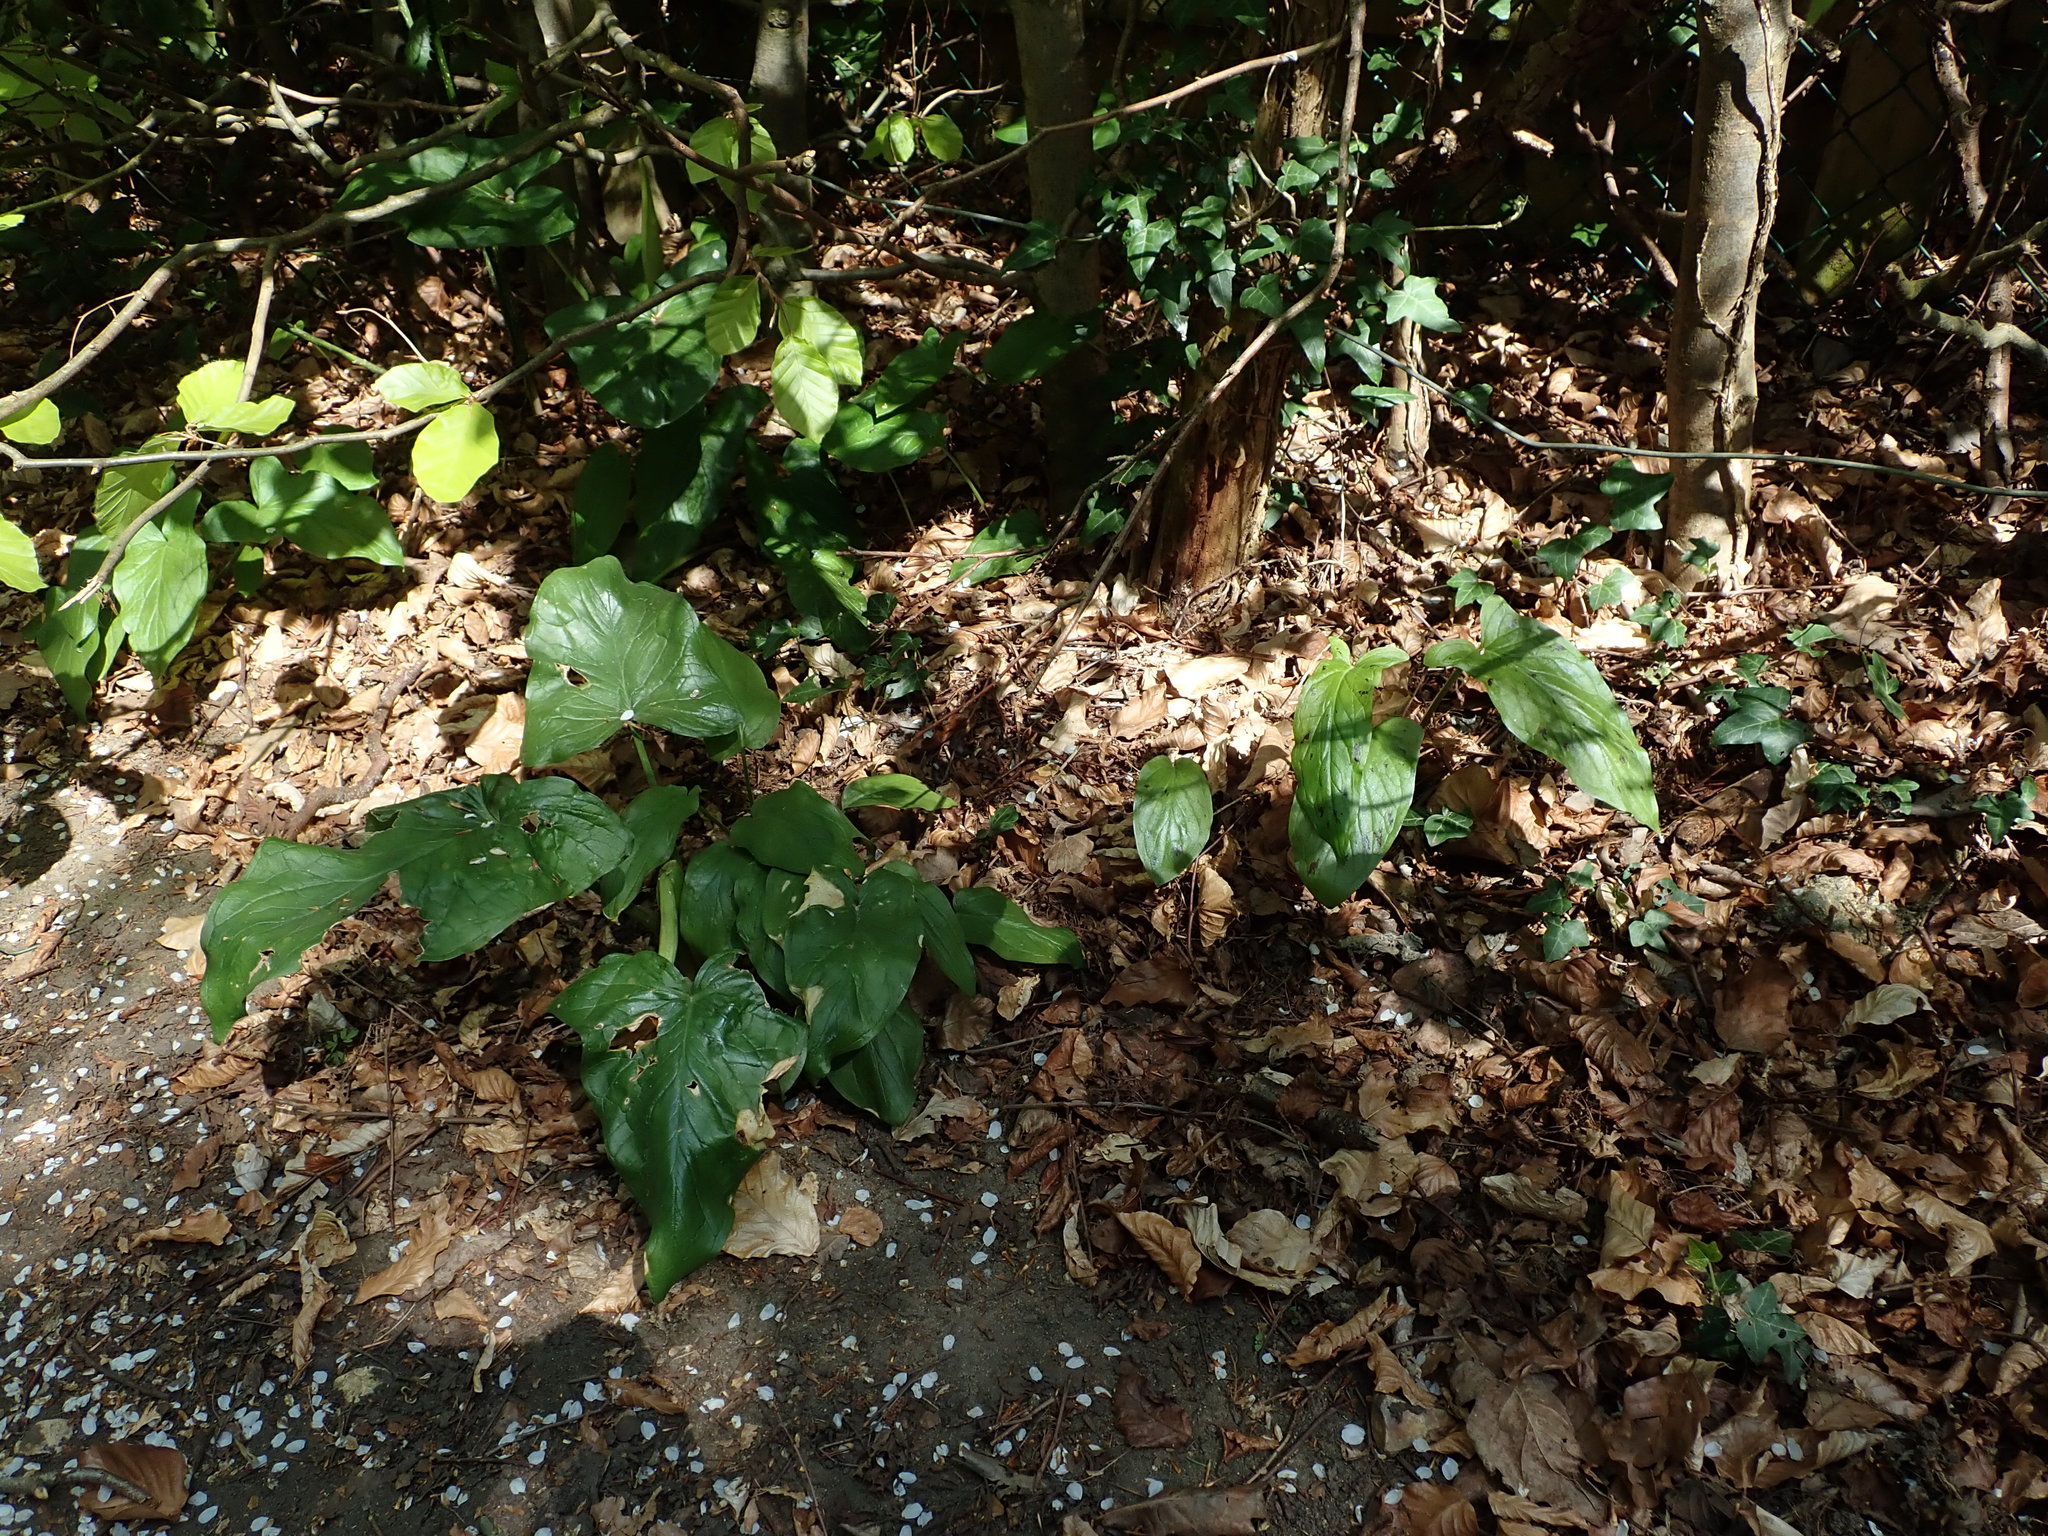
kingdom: Plantae
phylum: Tracheophyta
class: Liliopsida
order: Alismatales
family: Araceae
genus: Arum
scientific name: Arum maculatum
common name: Lords-and-ladies
